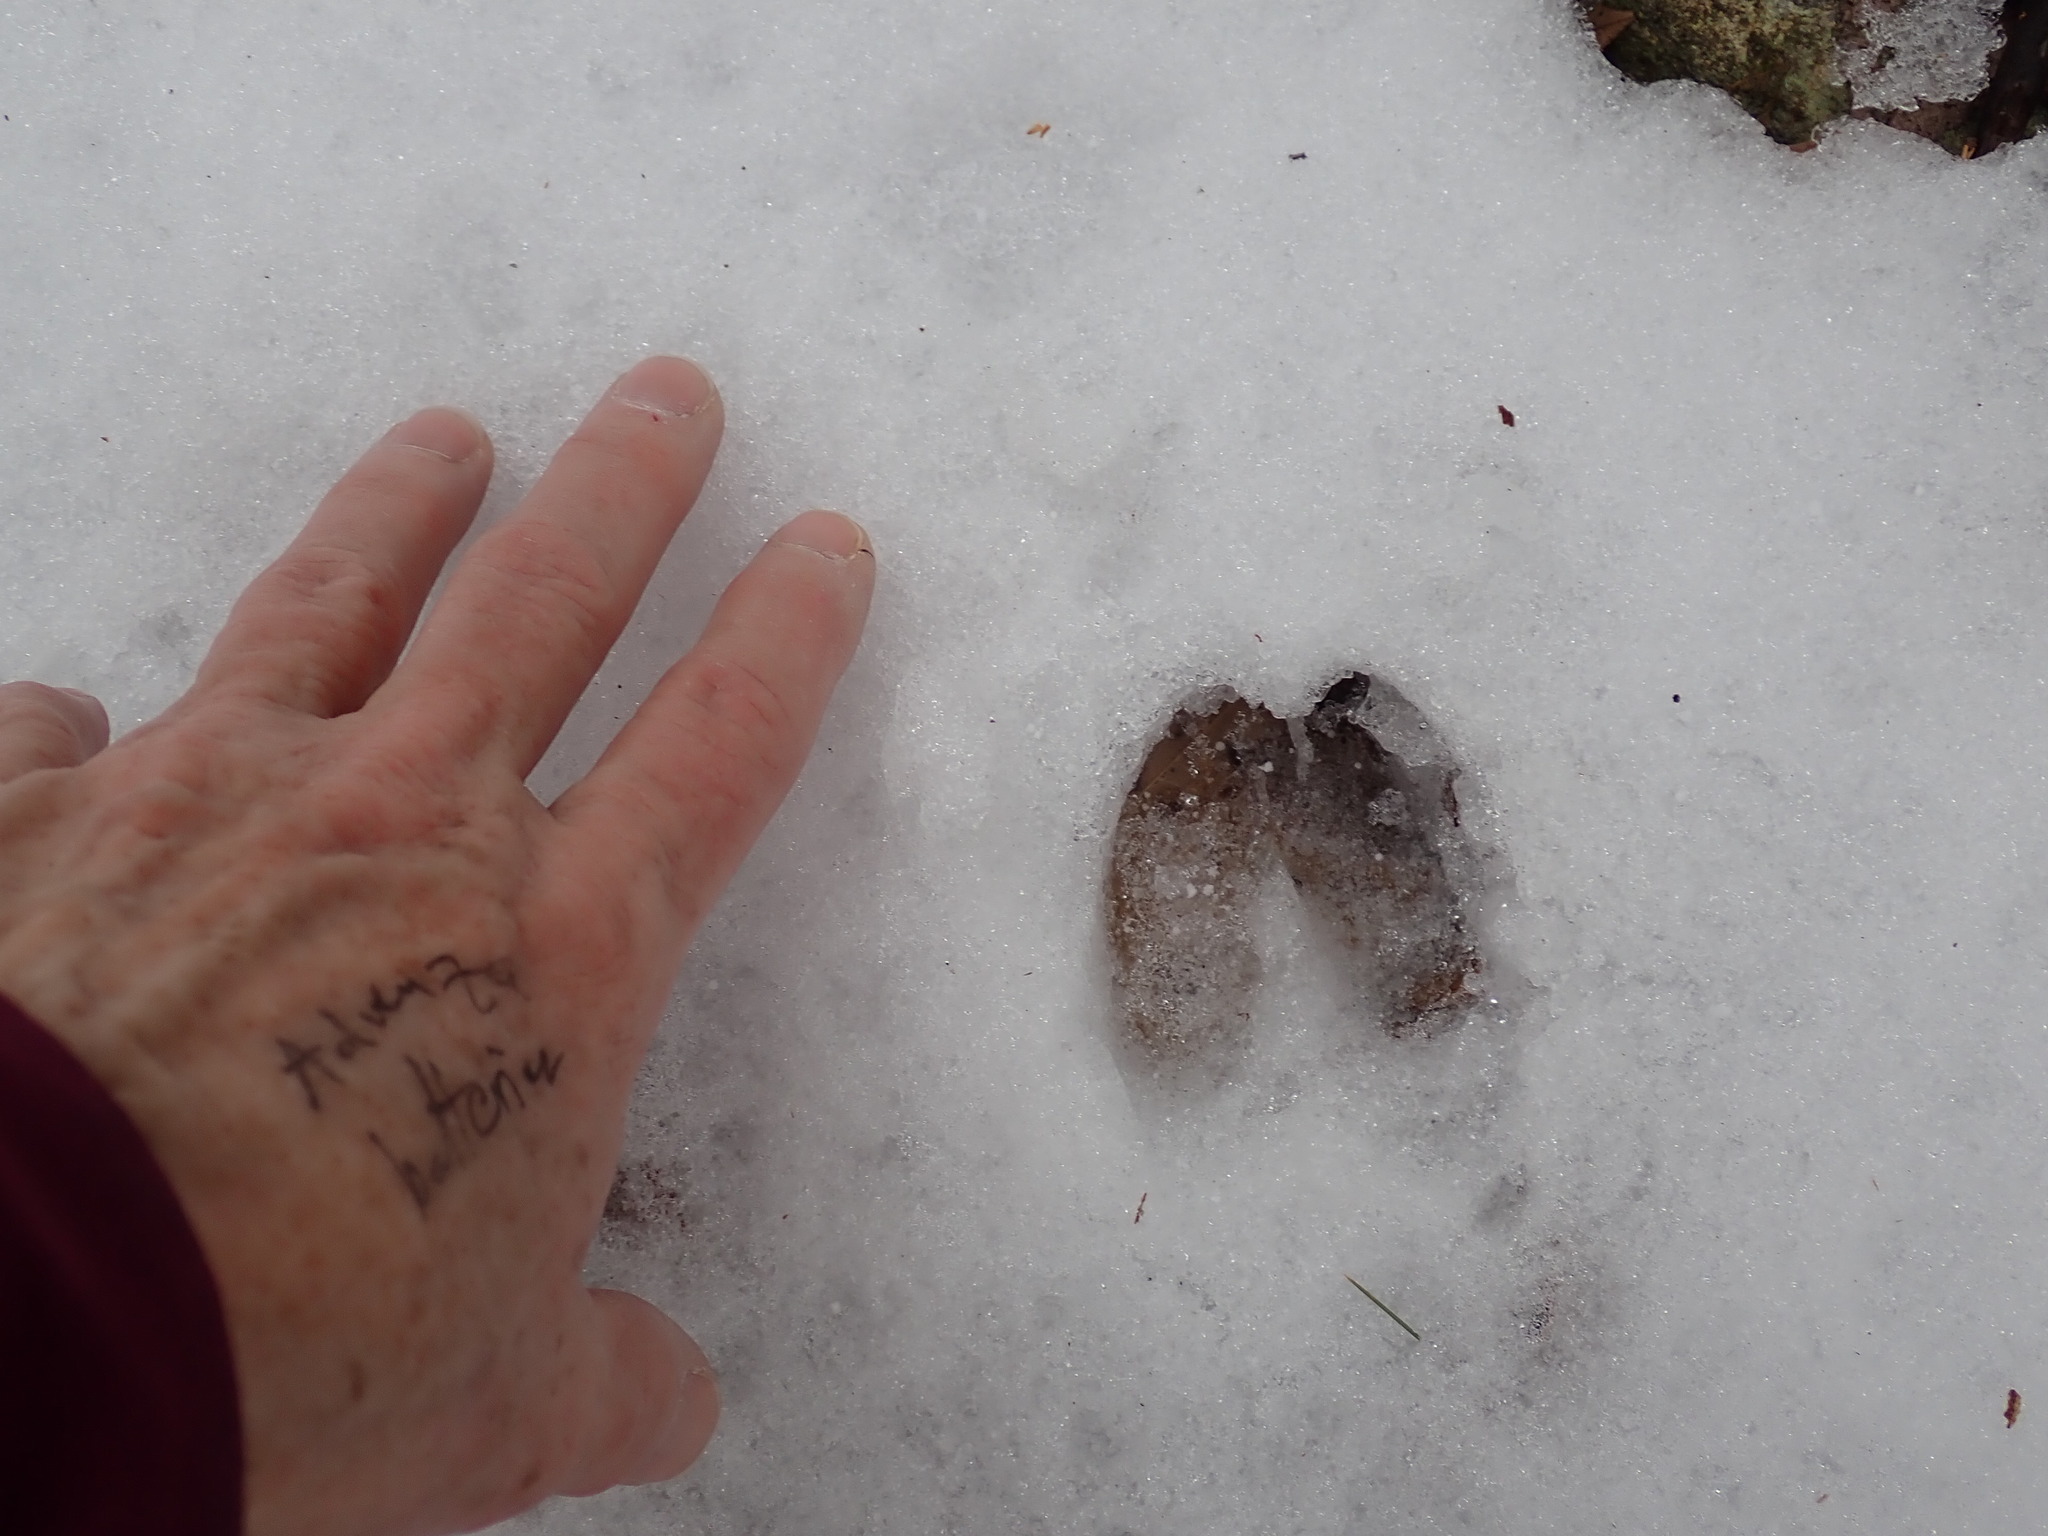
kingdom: Animalia
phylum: Chordata
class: Mammalia
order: Artiodactyla
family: Cervidae
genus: Odocoileus
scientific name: Odocoileus virginianus
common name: White-tailed deer
